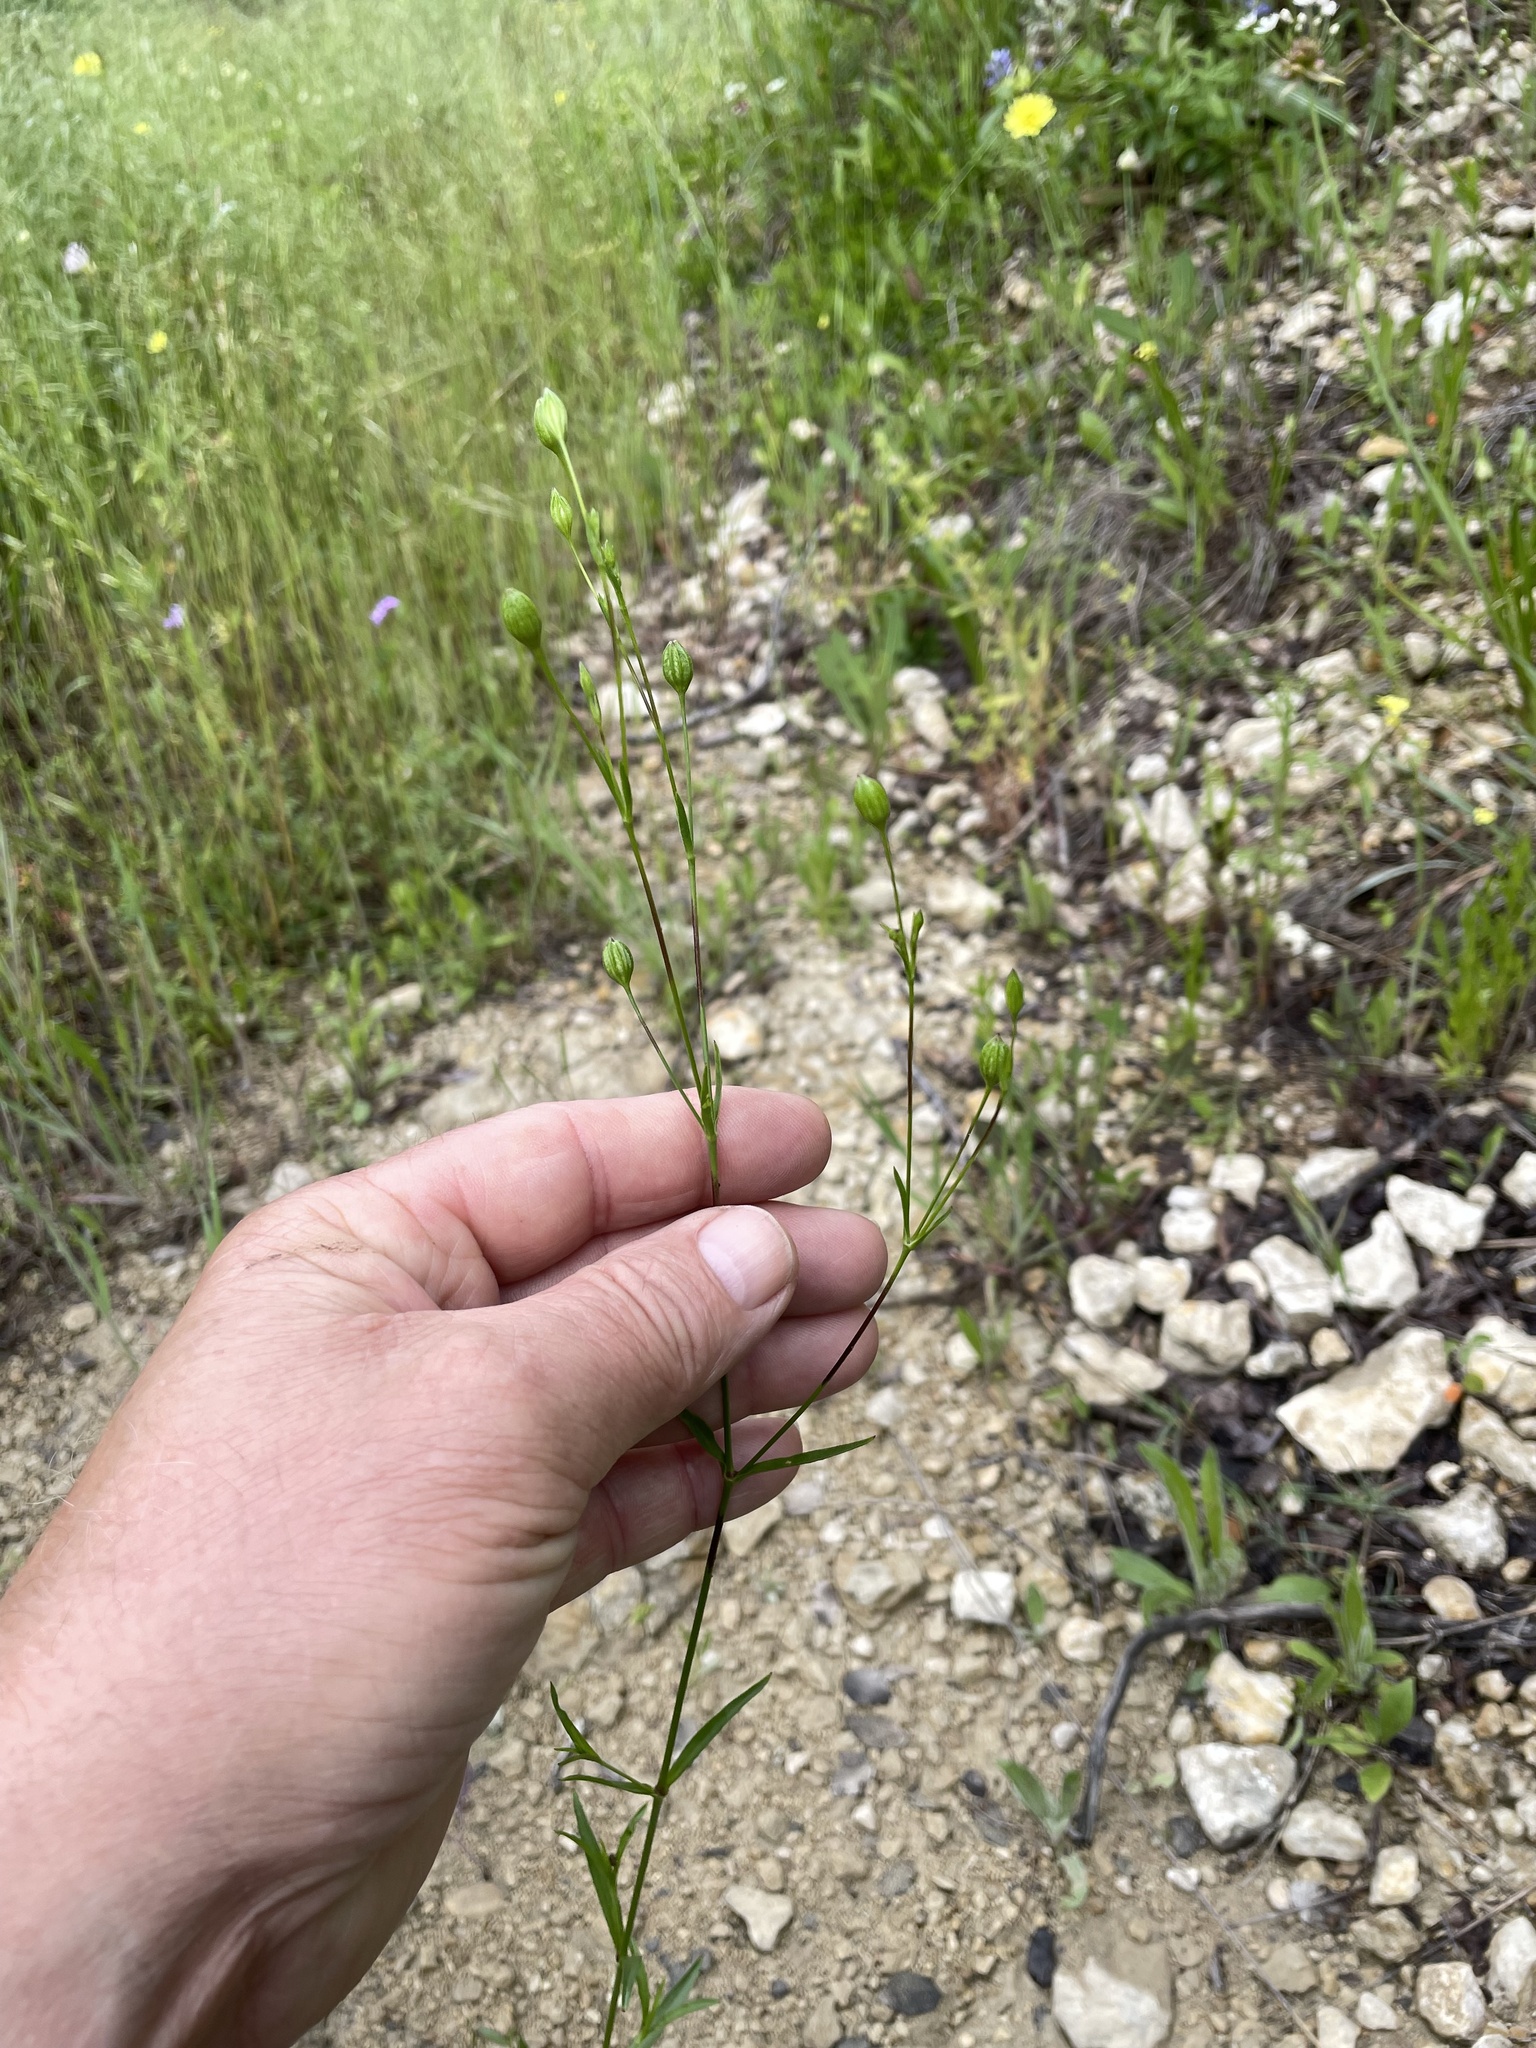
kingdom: Plantae
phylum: Tracheophyta
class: Magnoliopsida
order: Caryophyllales
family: Caryophyllaceae
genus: Silene
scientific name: Silene antirrhina
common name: Sleepy catchfly
